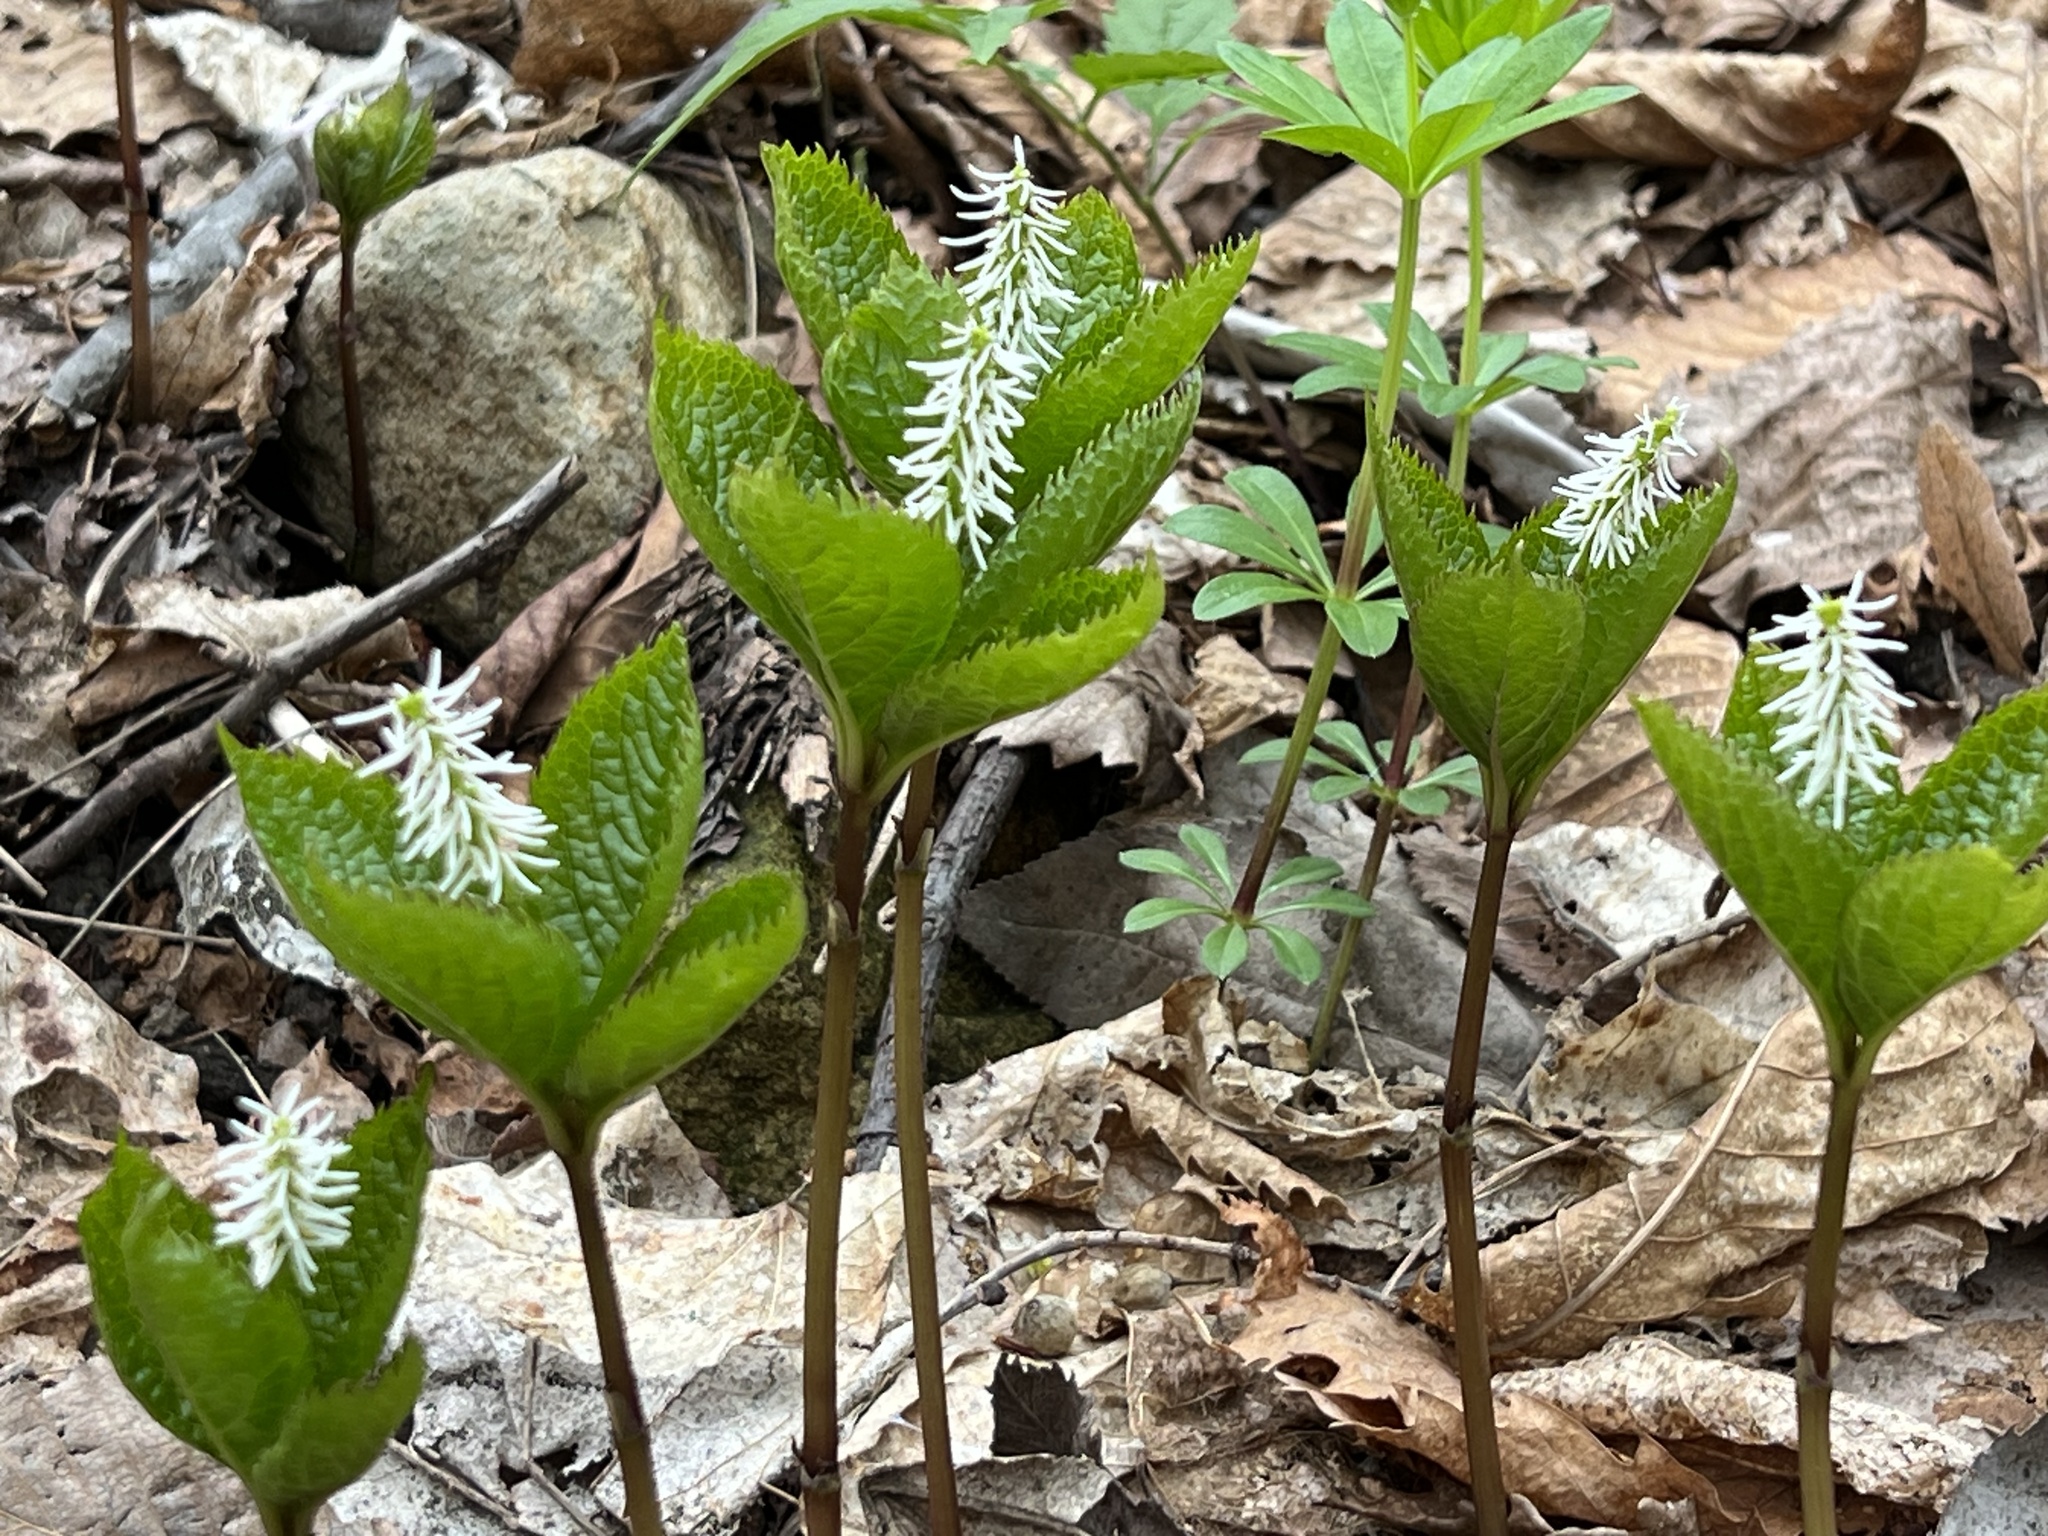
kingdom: Plantae
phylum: Tracheophyta
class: Magnoliopsida
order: Chloranthales
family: Chloranthaceae
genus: Chloranthus
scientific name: Chloranthus quadrifolius
